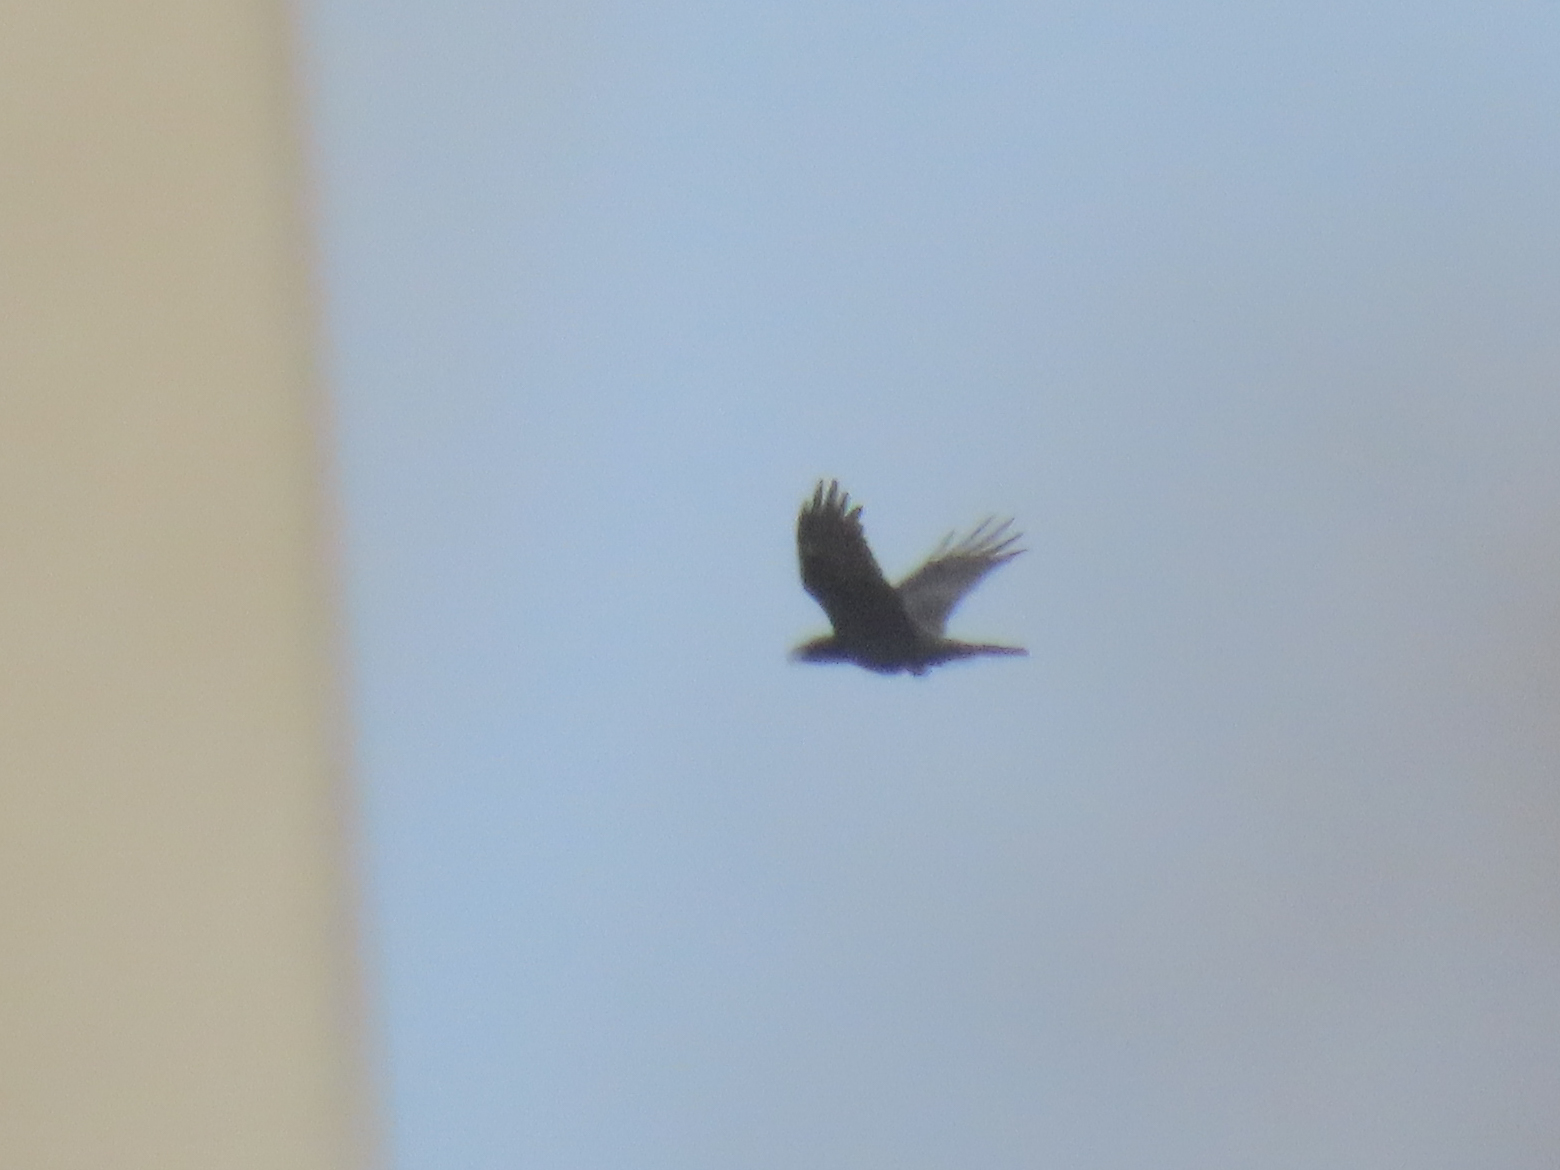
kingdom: Animalia
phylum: Chordata
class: Aves
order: Passeriformes
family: Corvidae
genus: Corvus
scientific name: Corvus corax
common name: Common raven
